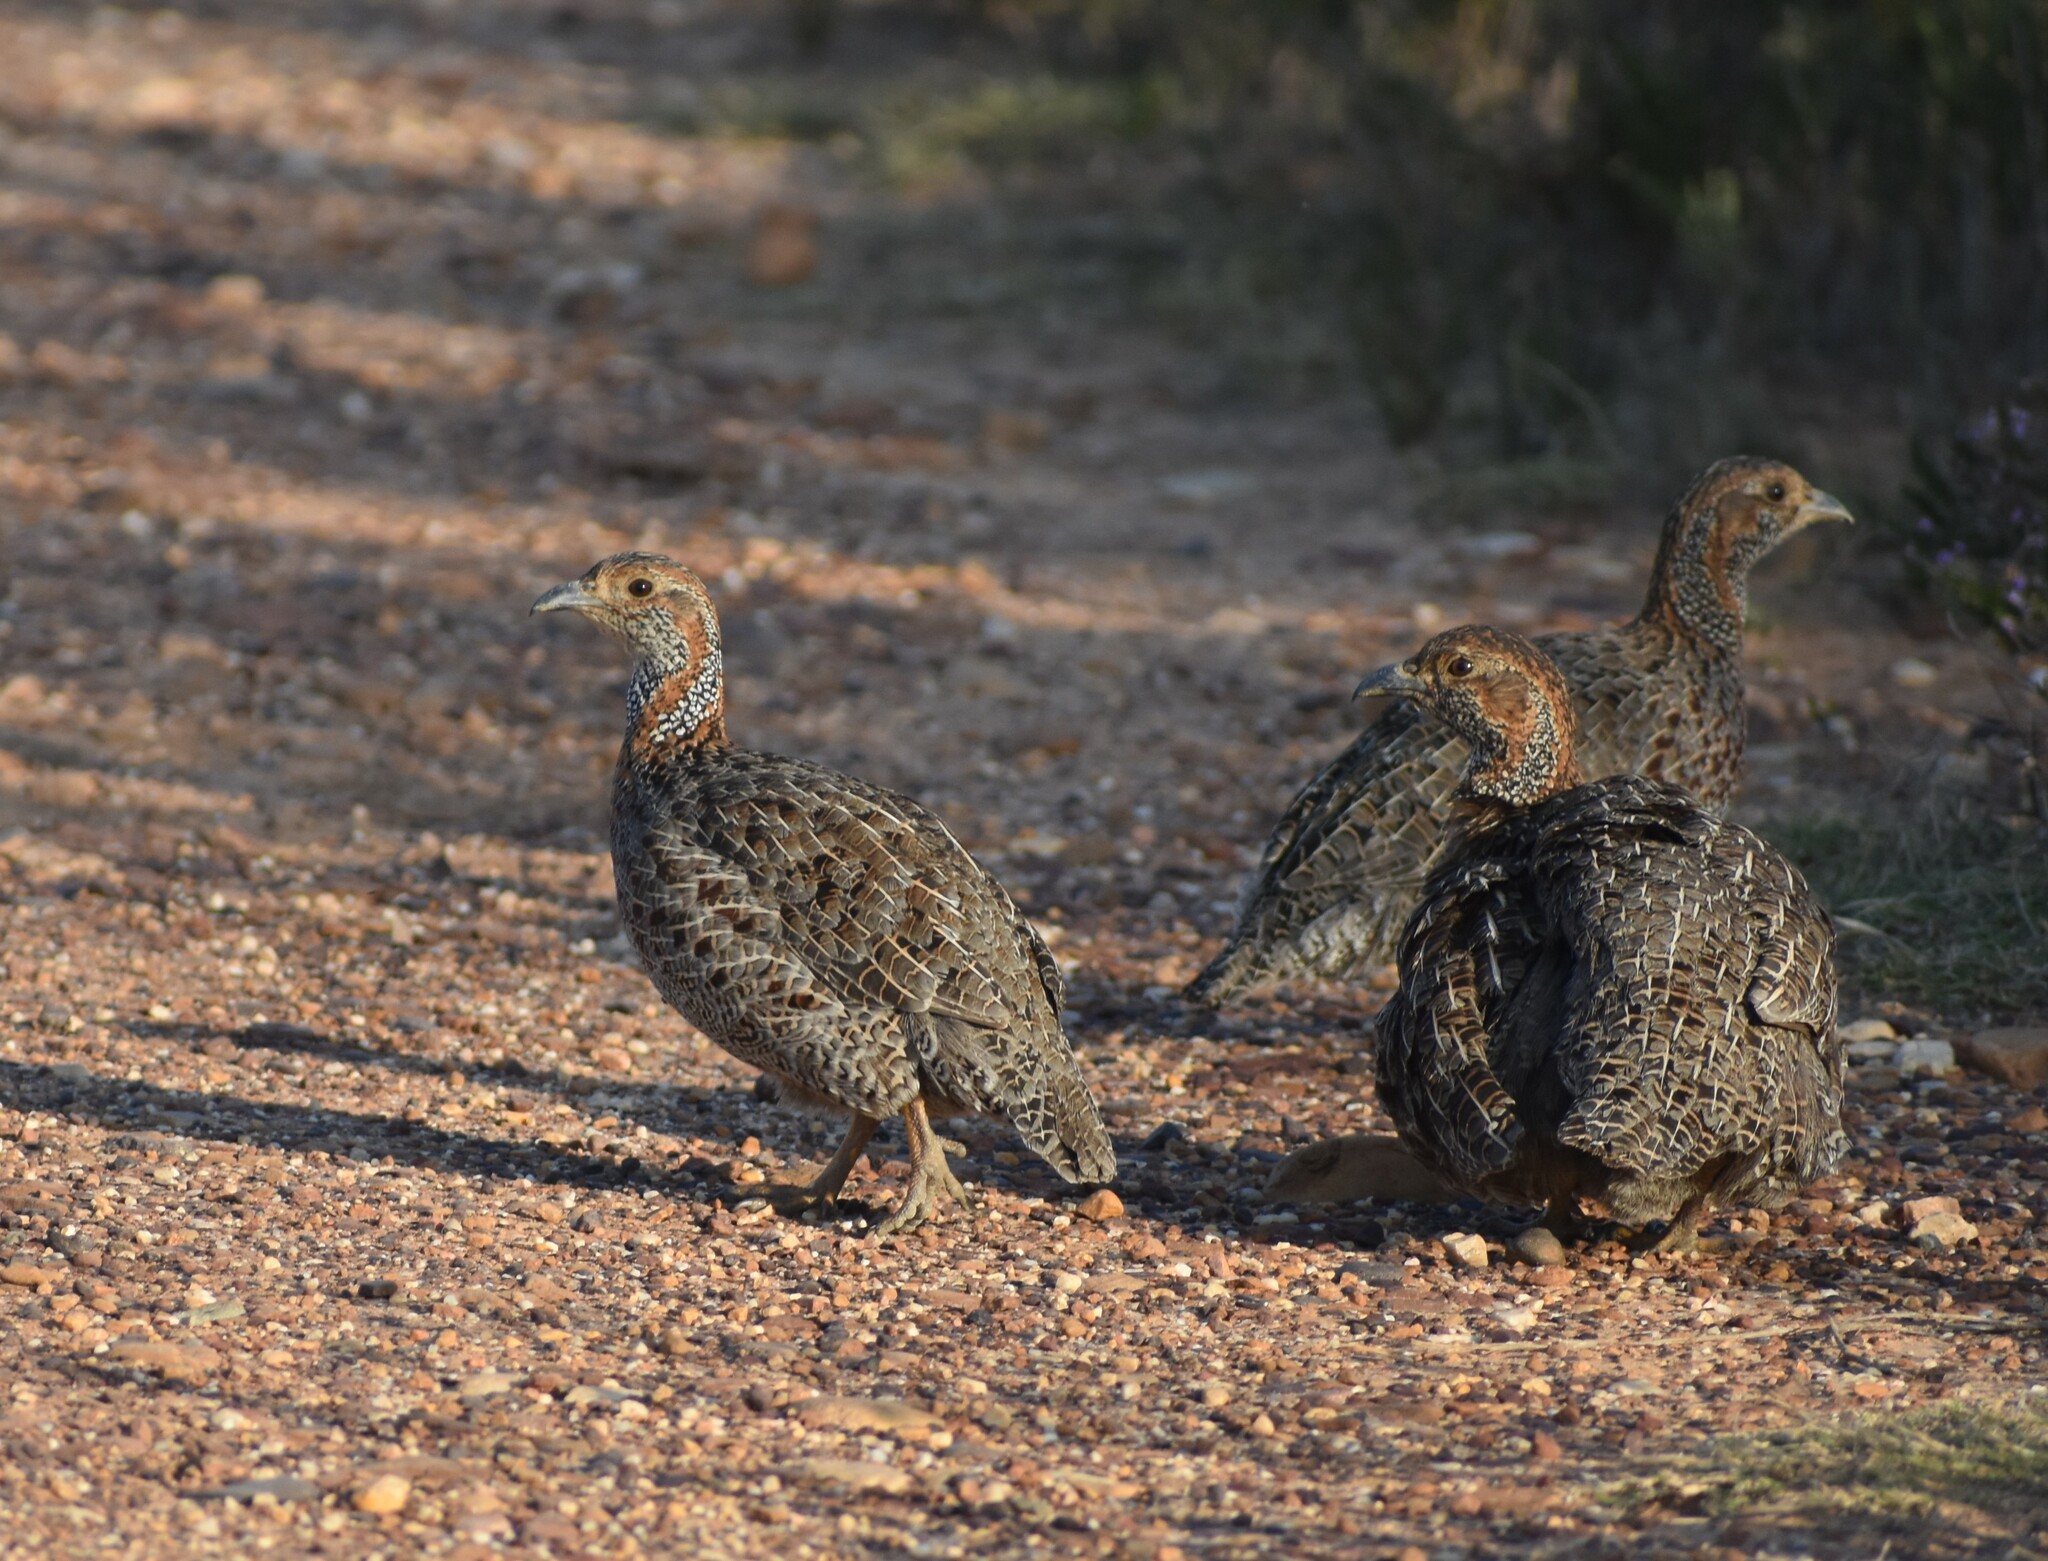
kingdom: Animalia
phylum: Chordata
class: Aves
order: Galliformes
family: Phasianidae
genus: Scleroptila
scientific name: Scleroptila afra
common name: Grey-winged francolin
